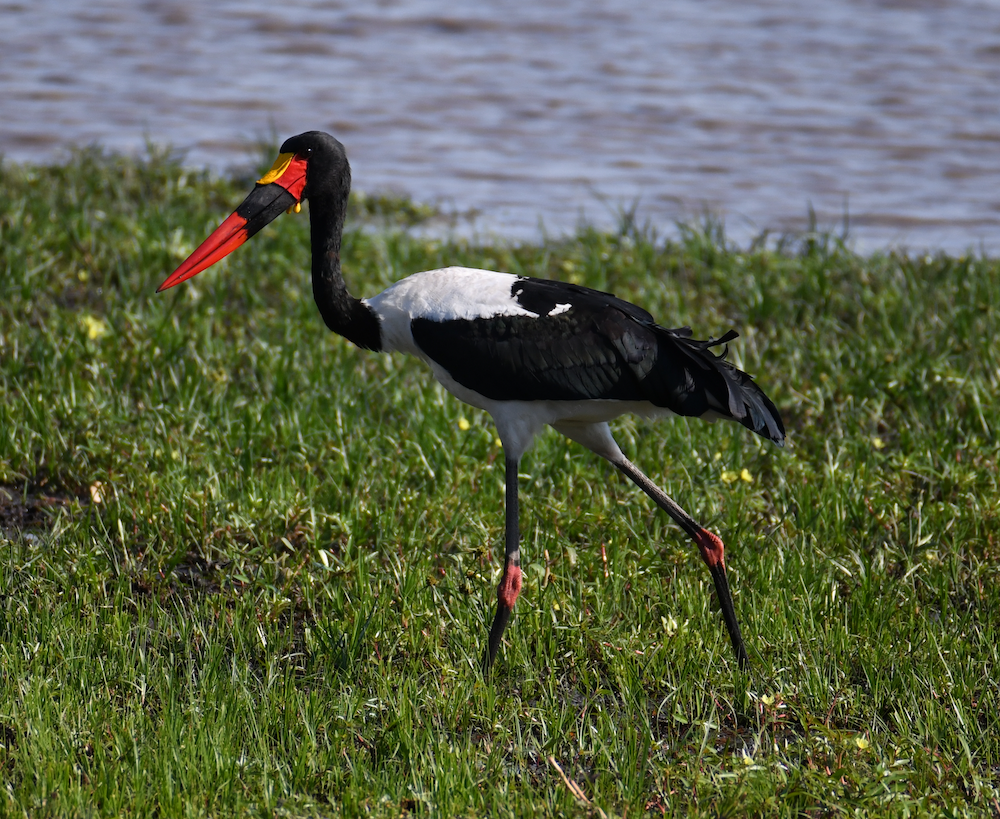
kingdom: Animalia
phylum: Chordata
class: Aves
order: Ciconiiformes
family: Ciconiidae
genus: Ephippiorhynchus
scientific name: Ephippiorhynchus senegalensis
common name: Saddle-billed stork
